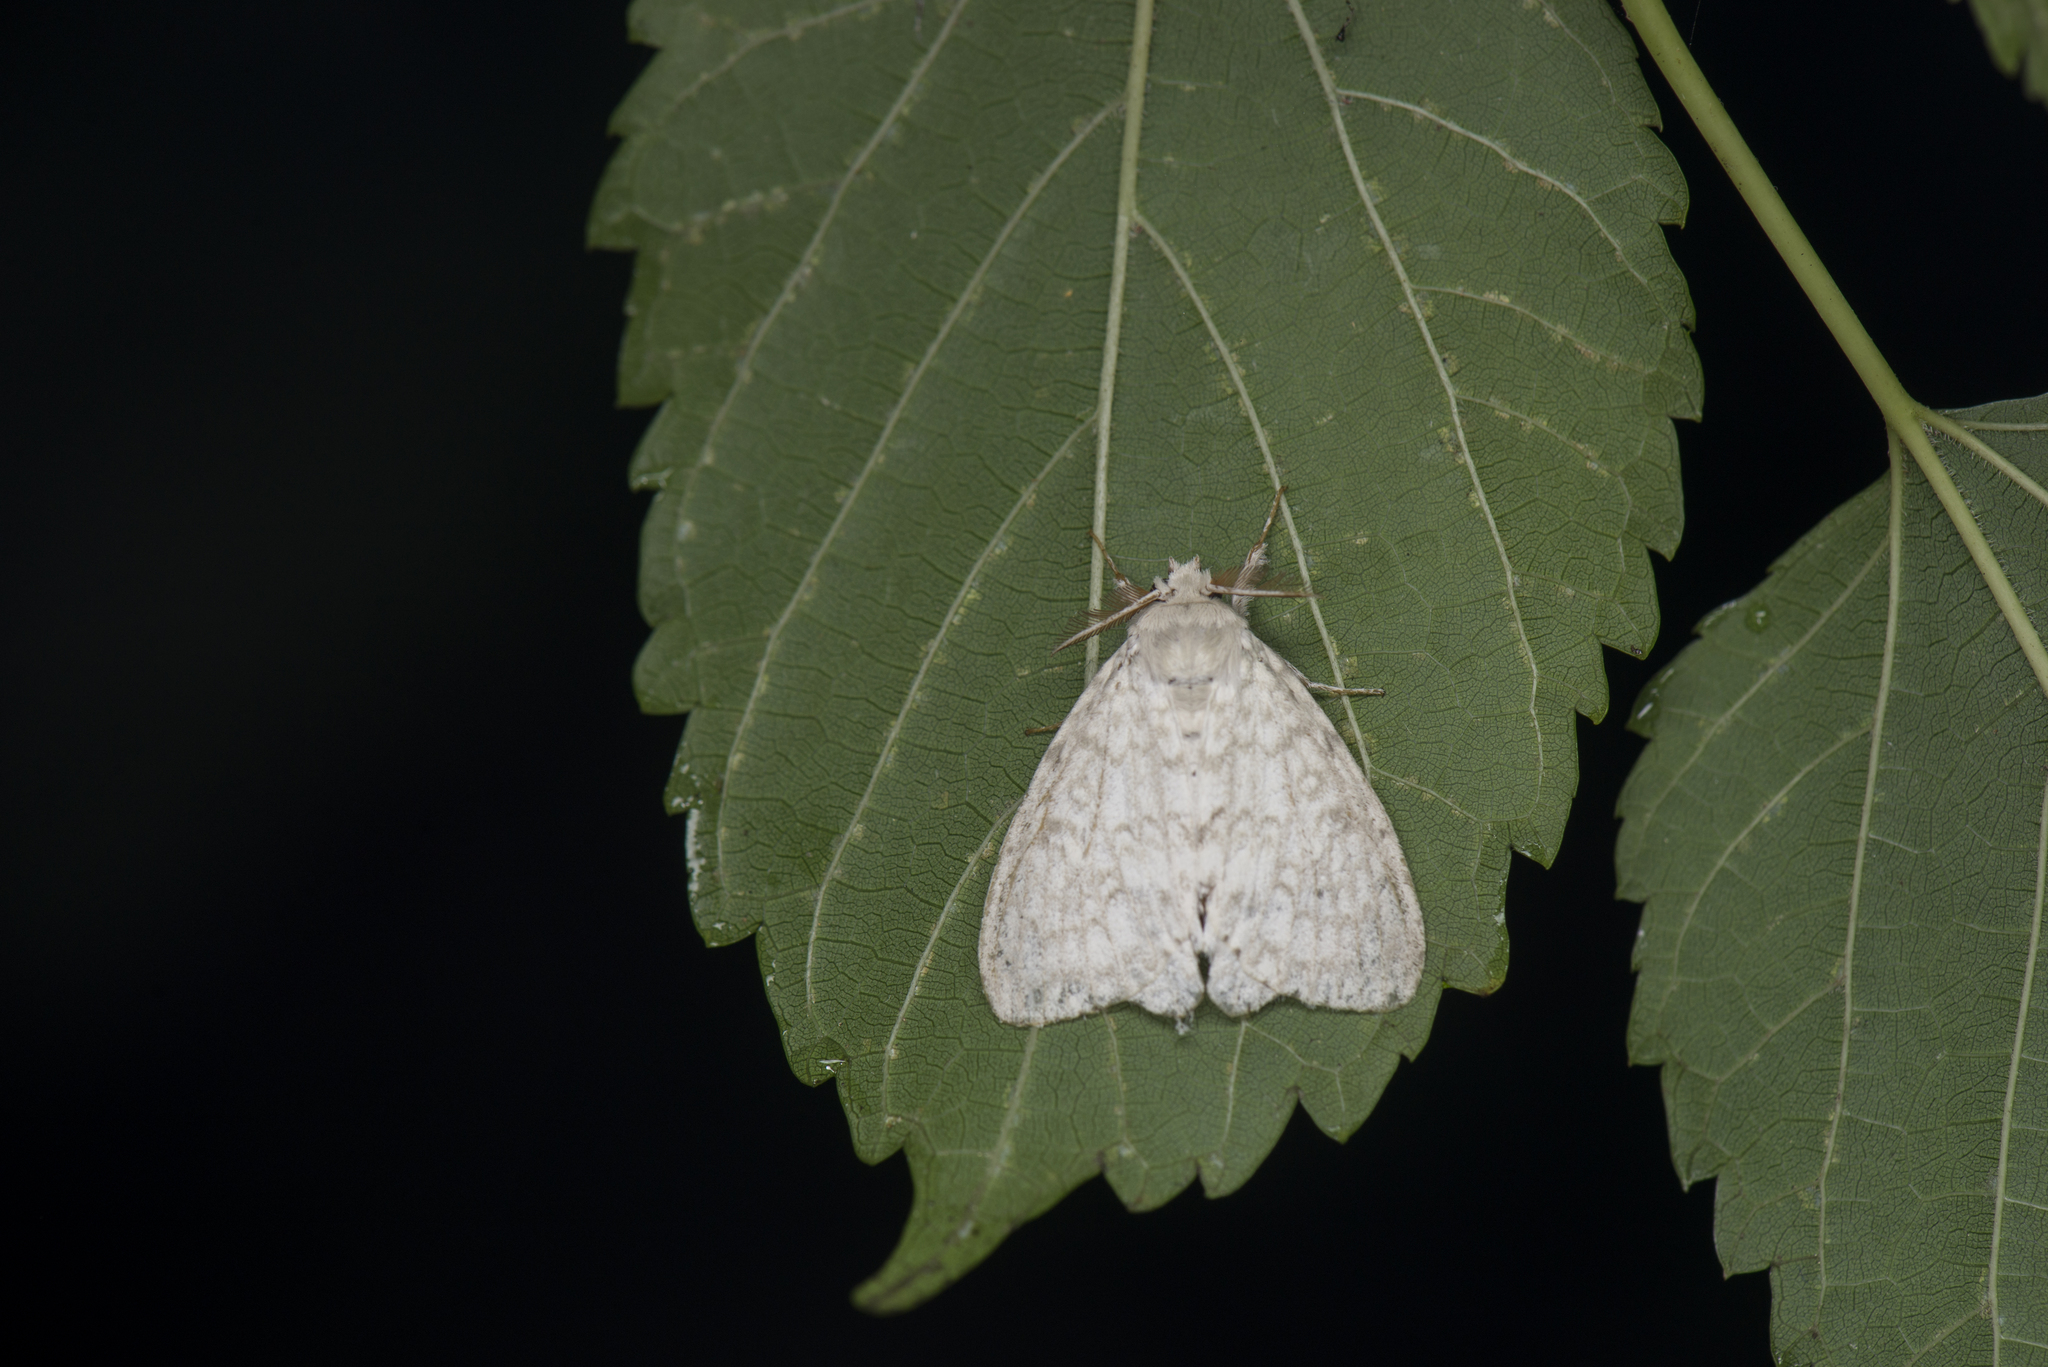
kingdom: Animalia
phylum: Arthropoda
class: Insecta
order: Lepidoptera
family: Erebidae
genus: Dura
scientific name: Dura alba
